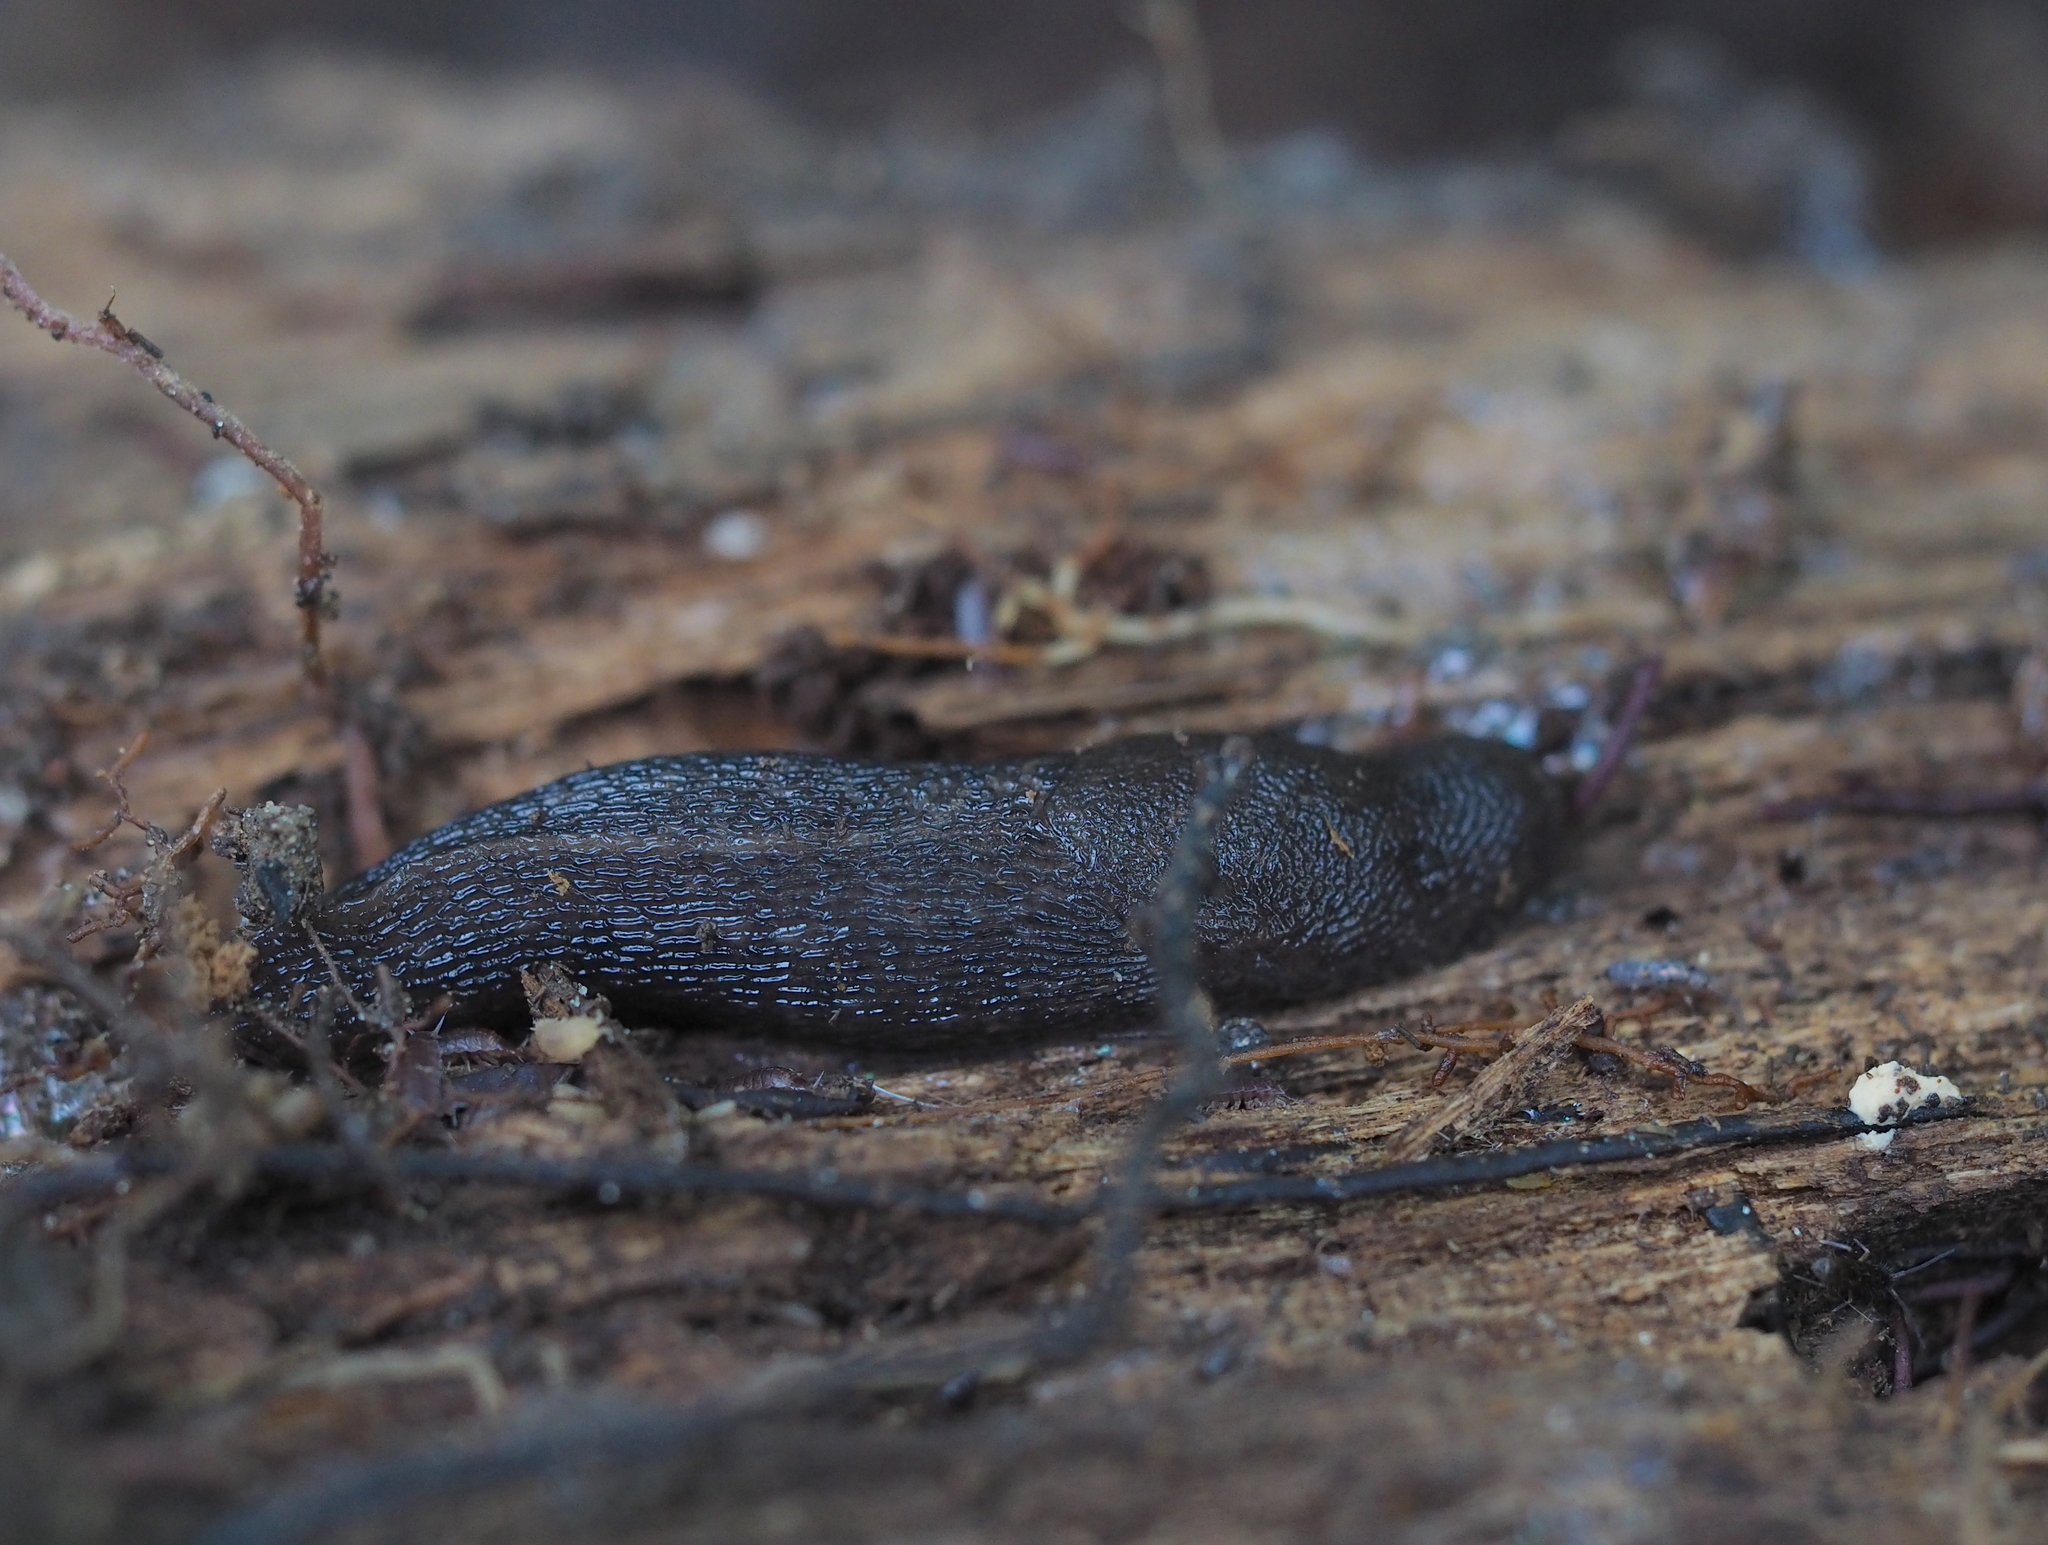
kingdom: Animalia
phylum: Mollusca
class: Gastropoda
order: Stylommatophora
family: Limacidae
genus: Limax
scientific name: Limax maximus
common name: Great grey slug
